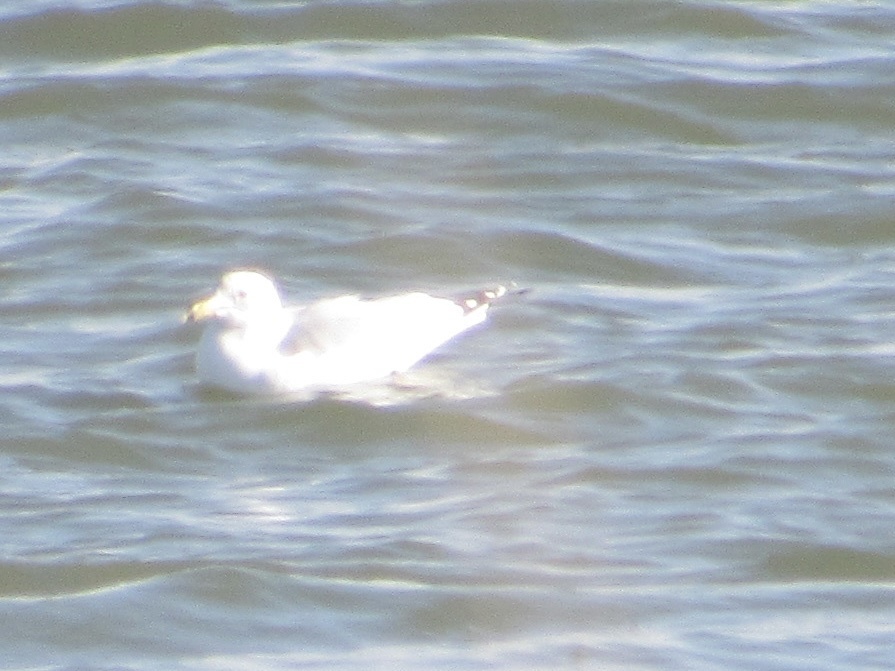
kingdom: Animalia
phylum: Chordata
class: Aves
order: Charadriiformes
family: Laridae
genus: Larus
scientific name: Larus delawarensis
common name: Ring-billed gull
